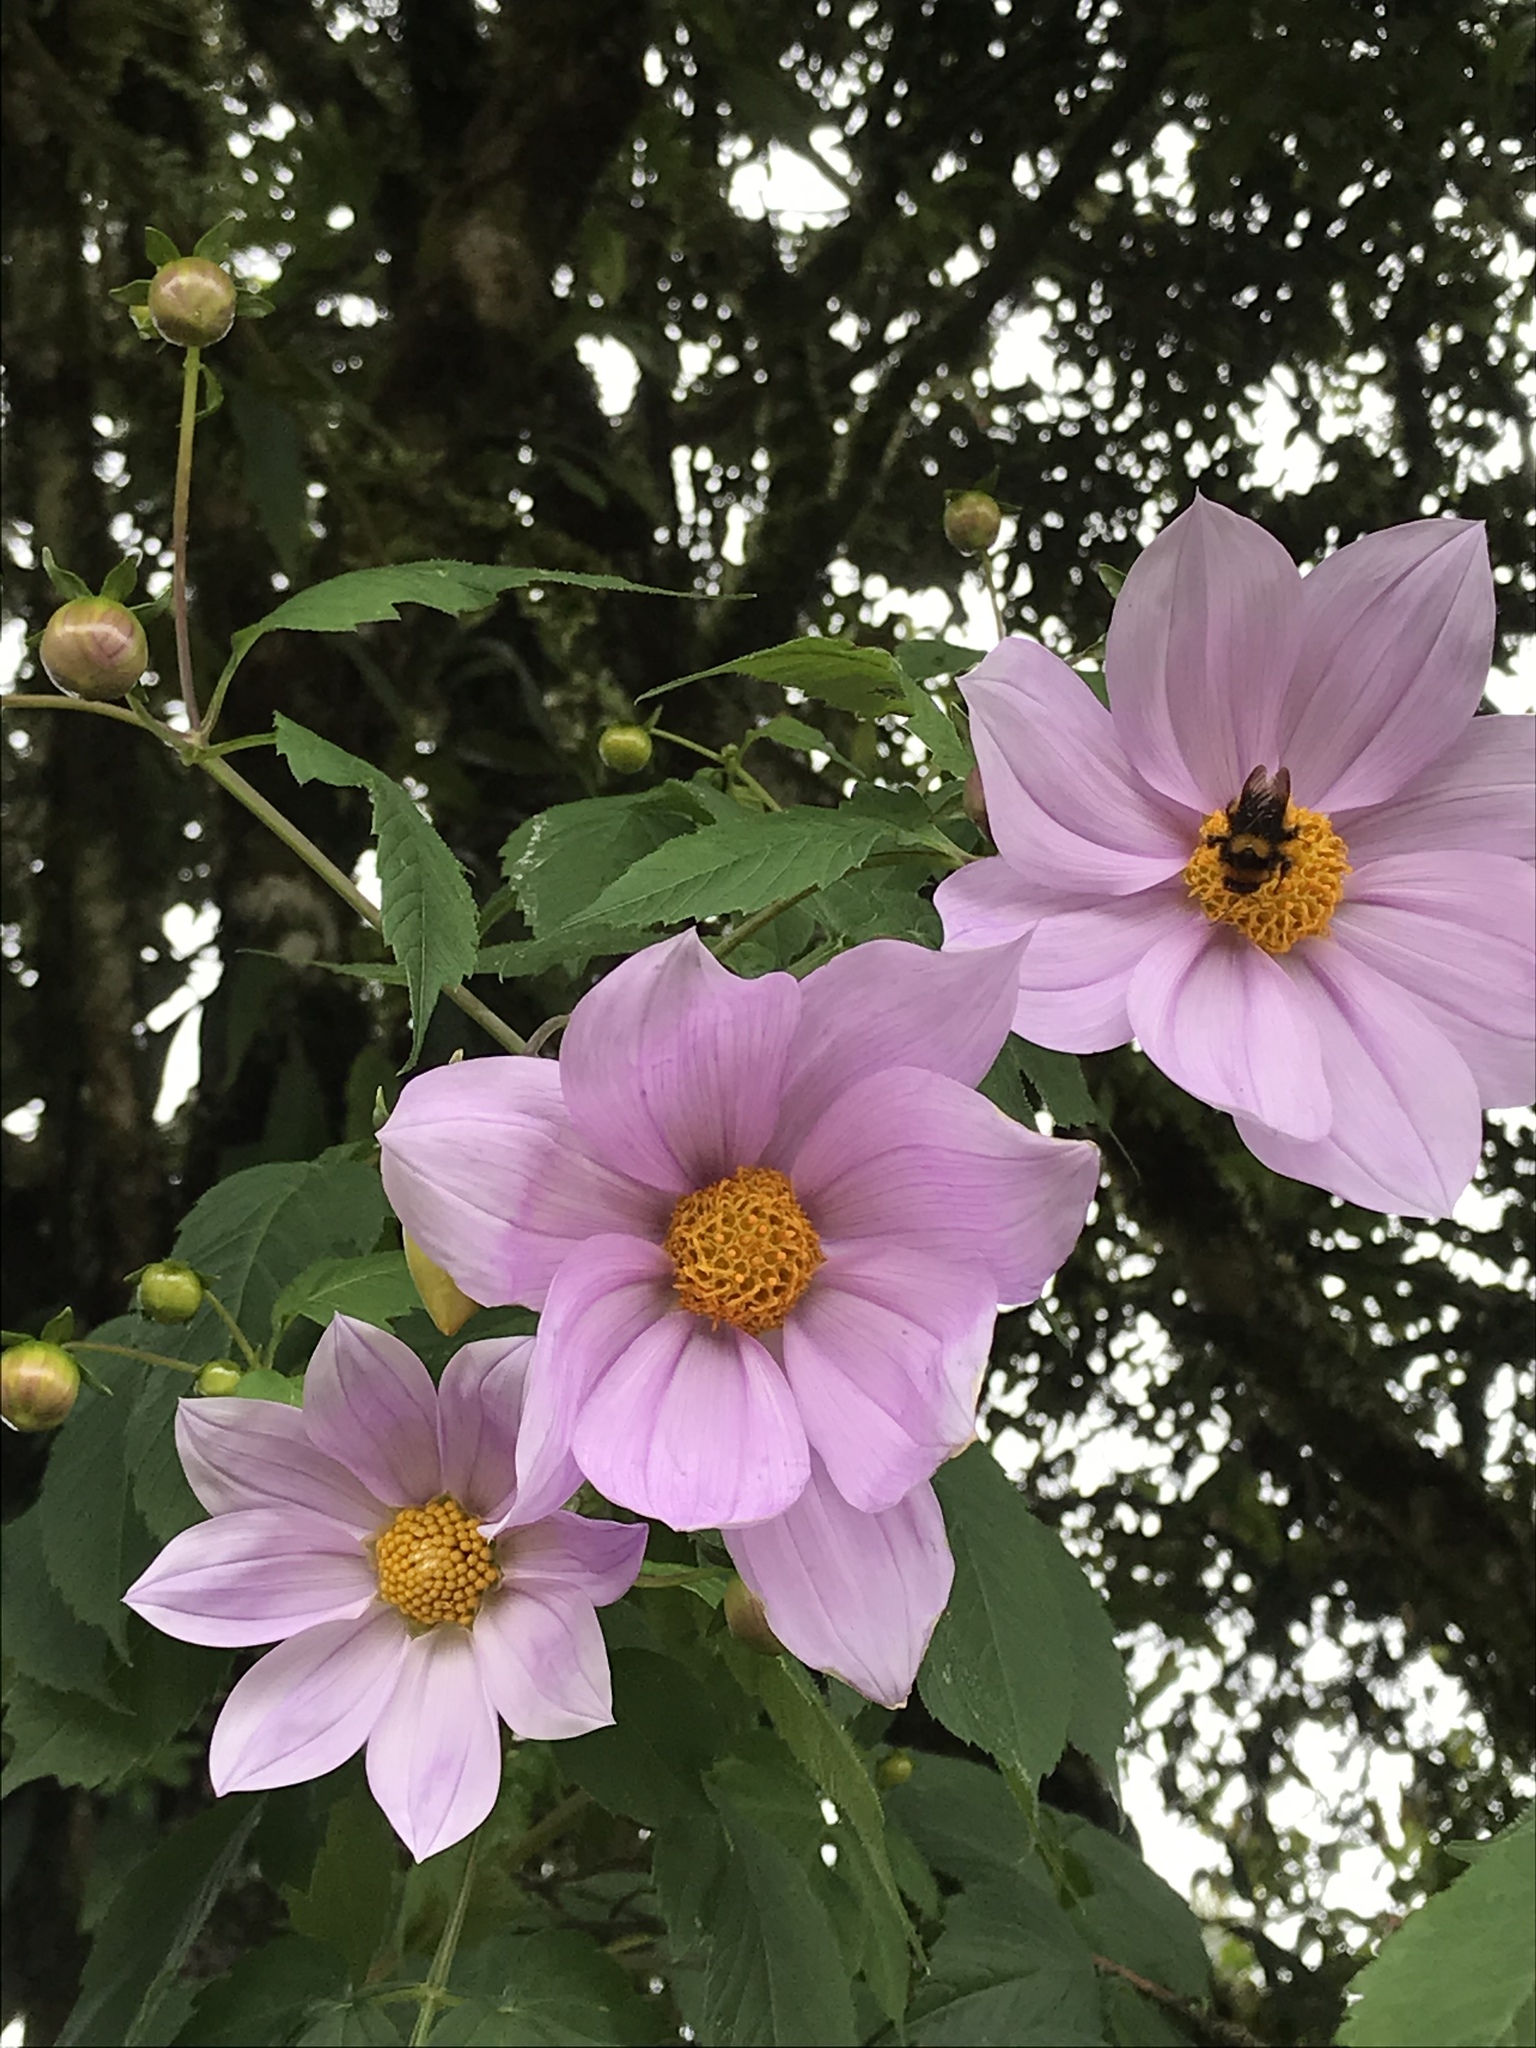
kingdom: Plantae
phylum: Tracheophyta
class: Magnoliopsida
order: Asterales
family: Asteraceae
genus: Dahlia
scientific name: Dahlia imperialis
